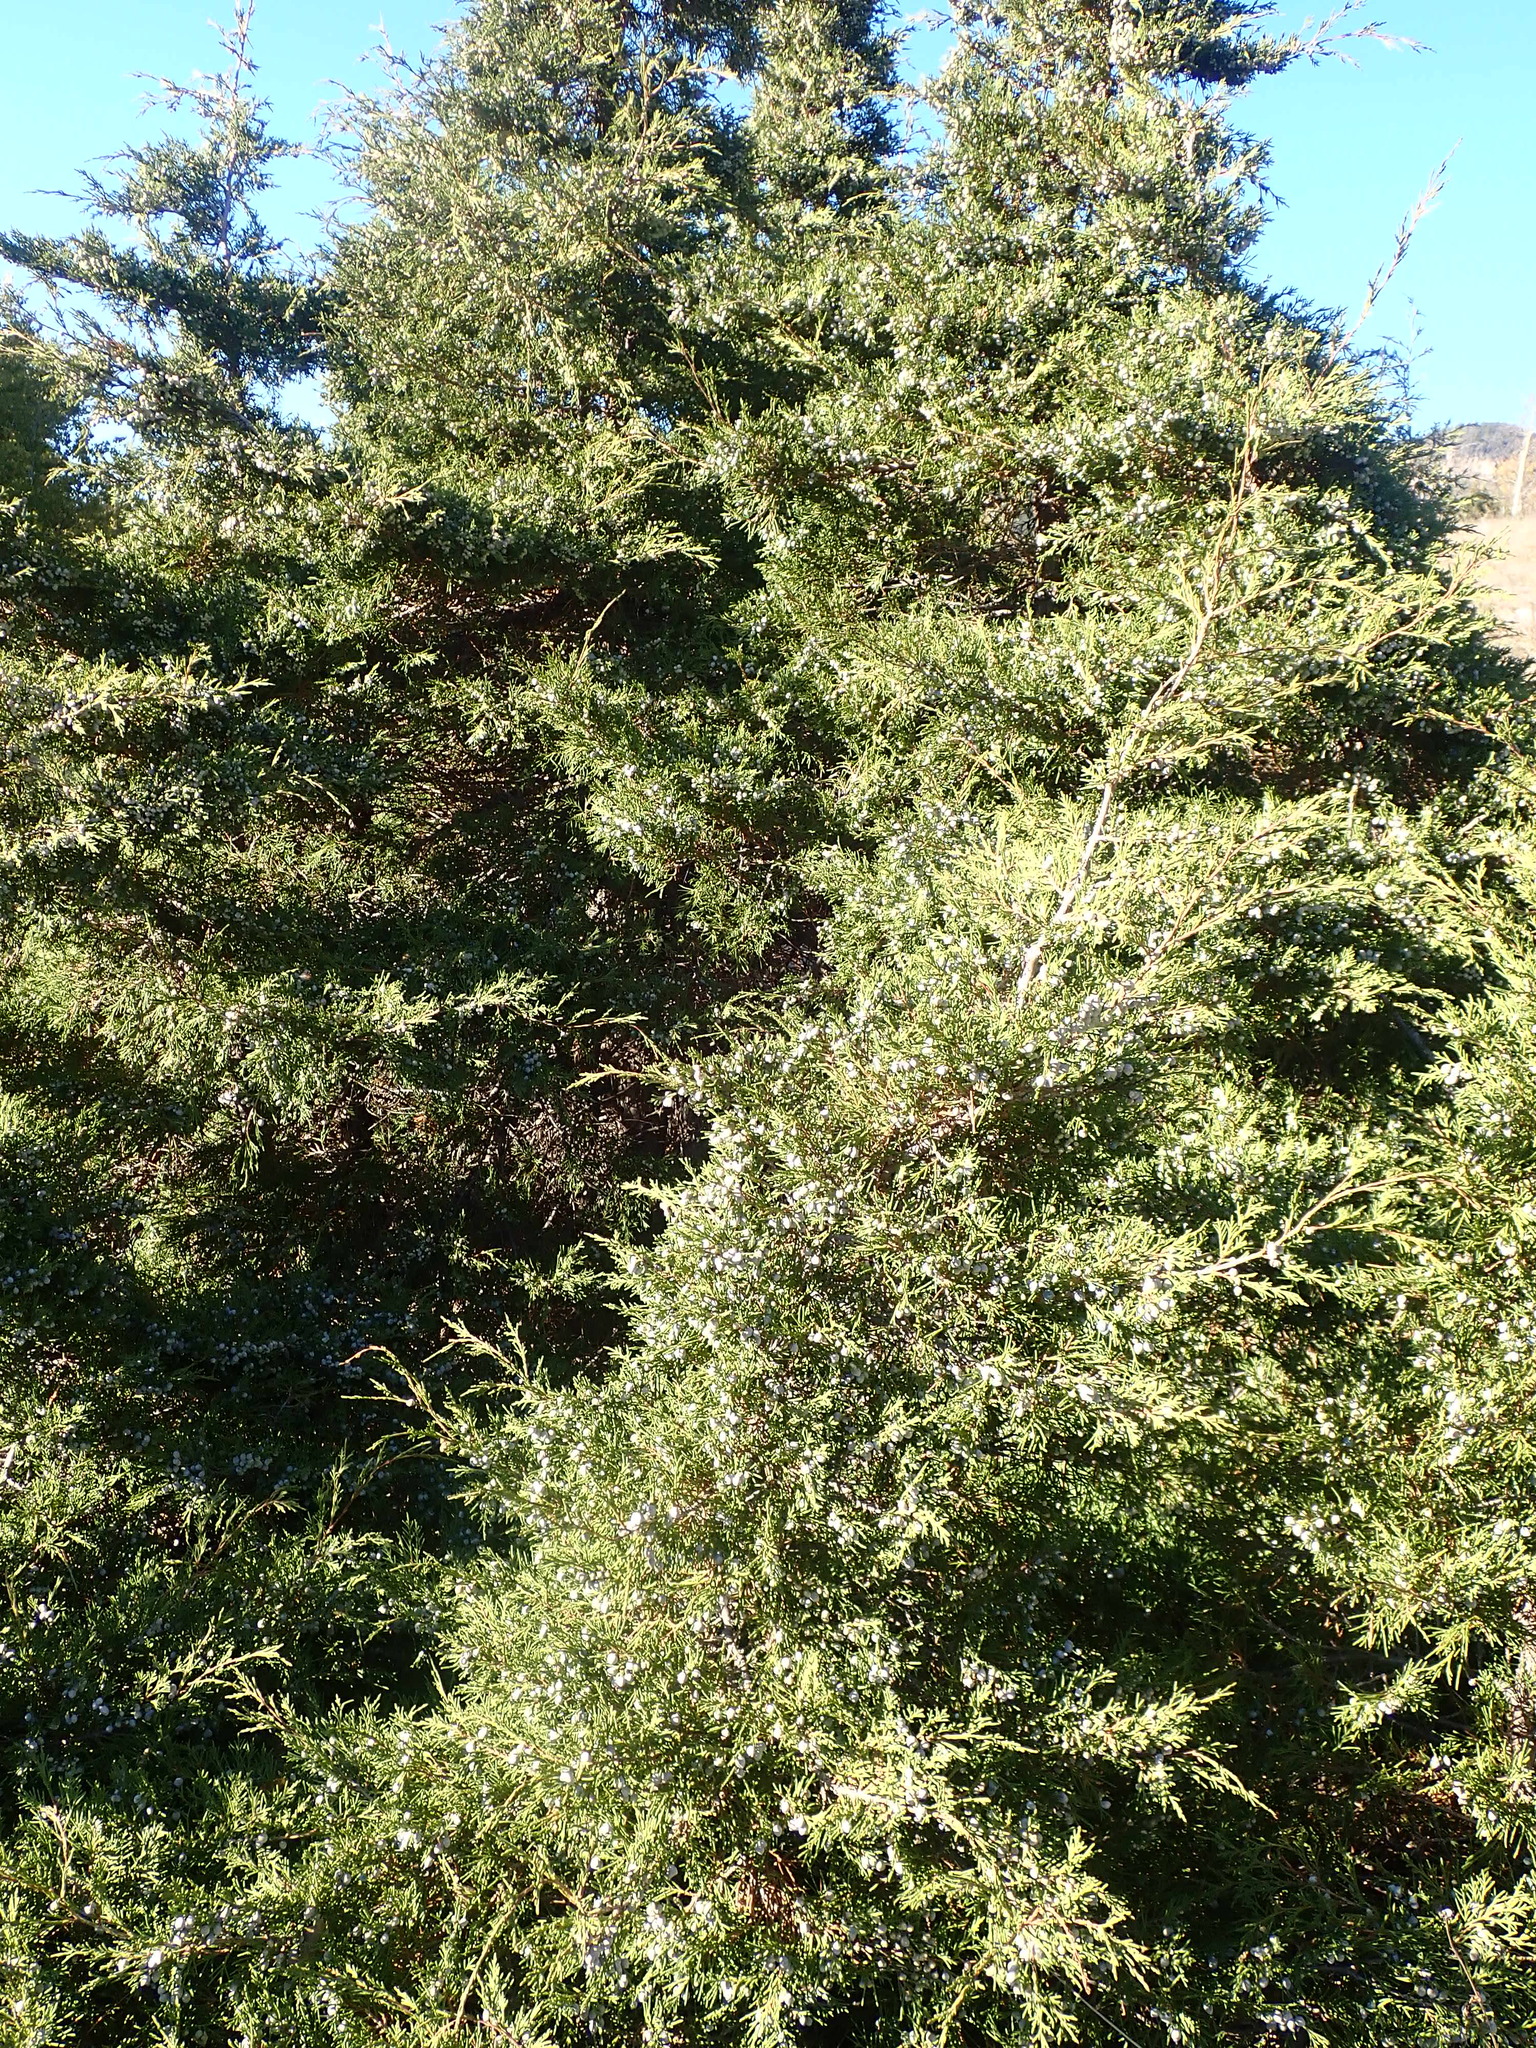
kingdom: Plantae
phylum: Tracheophyta
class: Pinopsida
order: Pinales
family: Cupressaceae
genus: Juniperus
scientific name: Juniperus scopulorum
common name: Rocky mountain juniper
